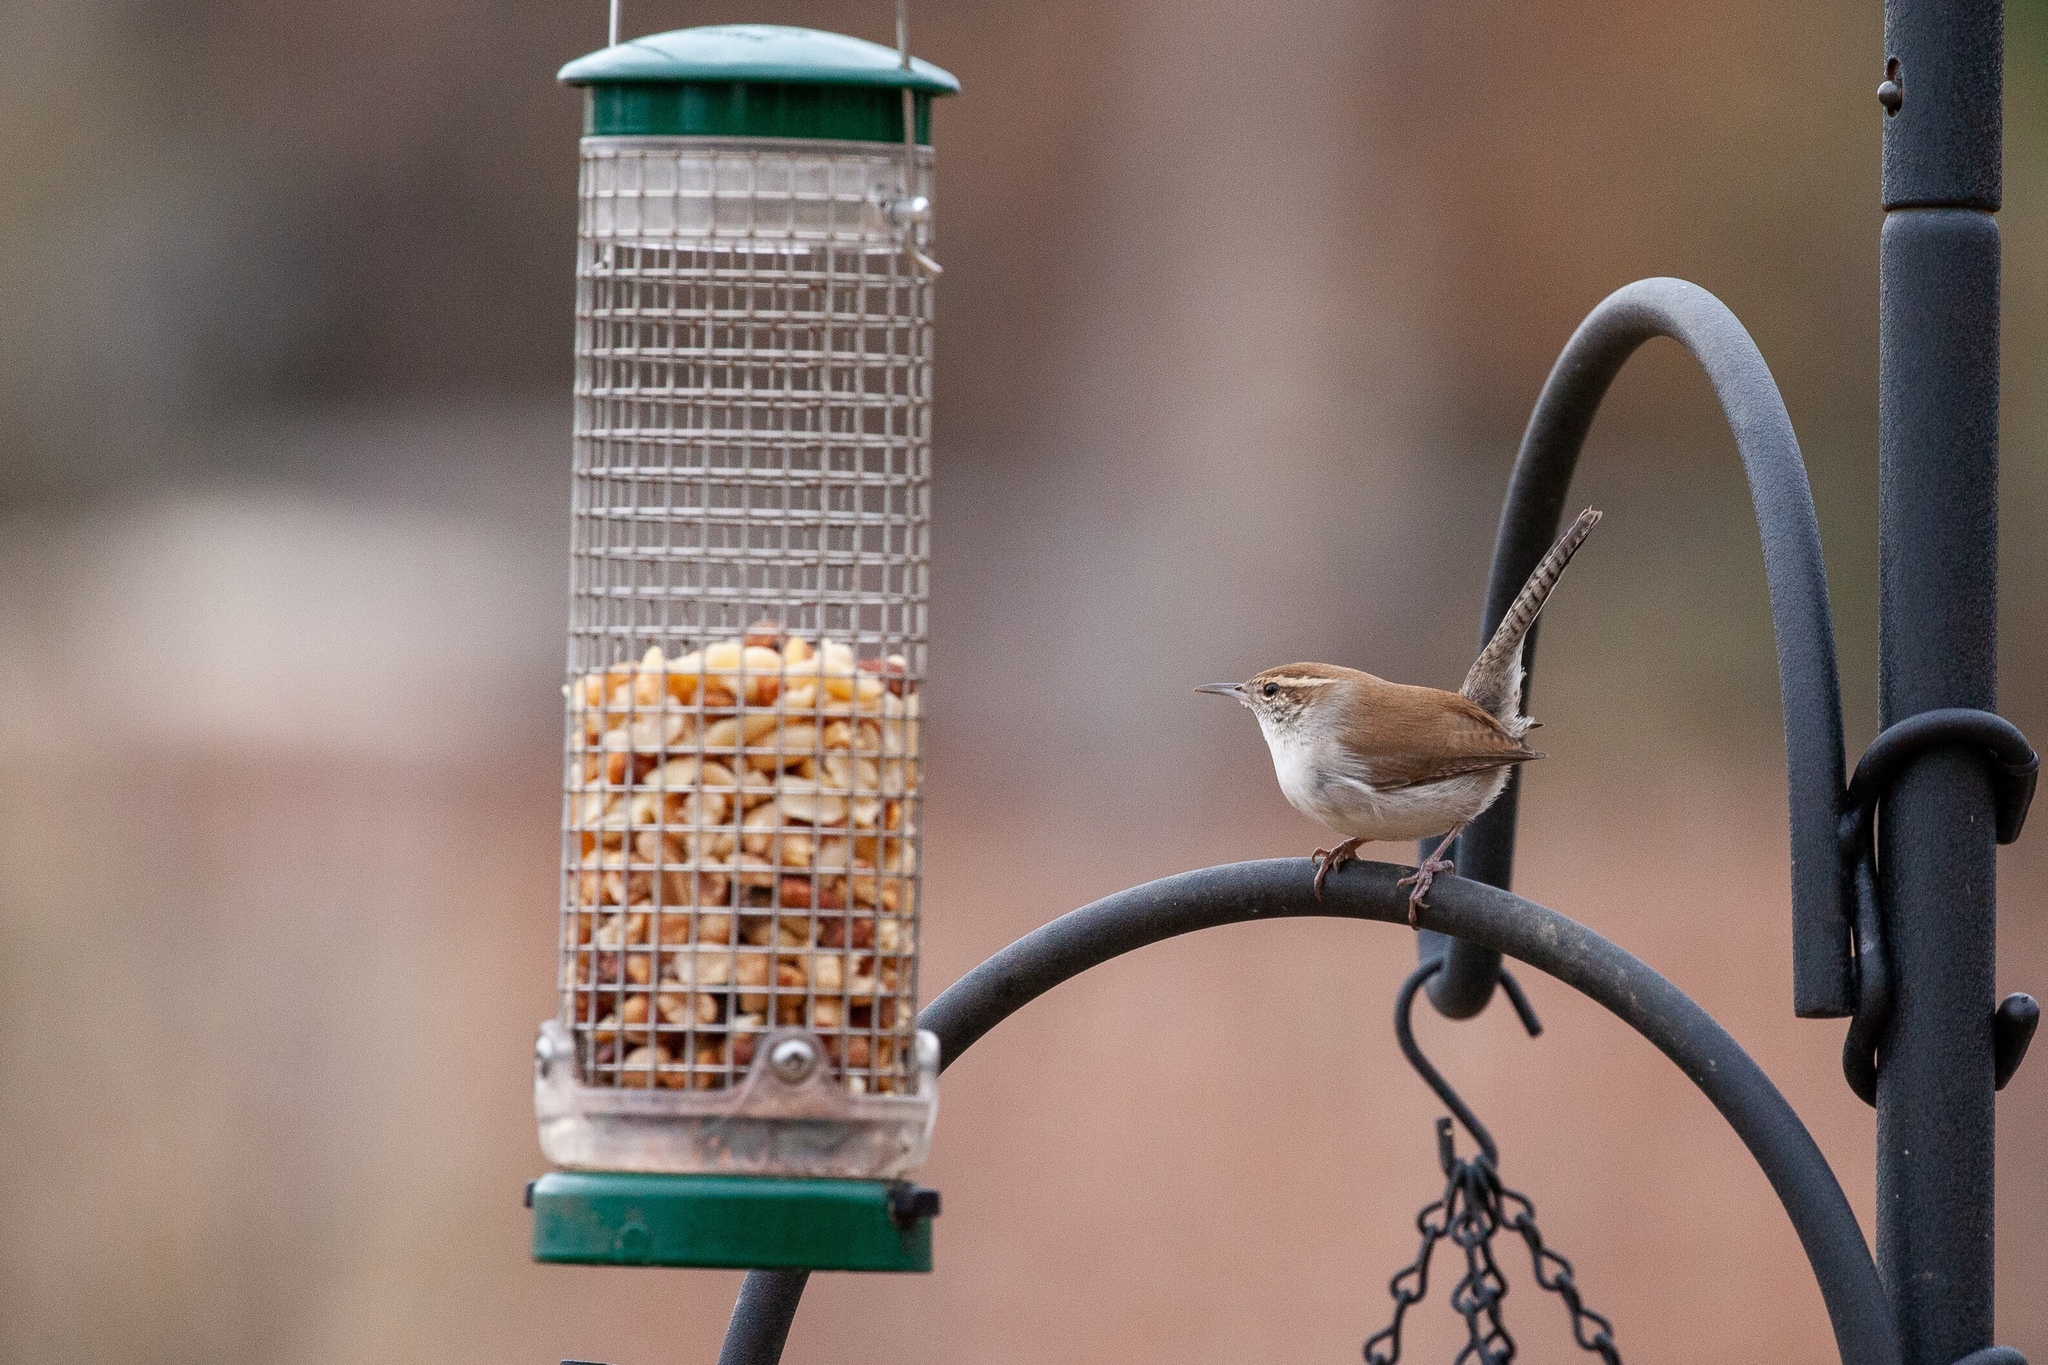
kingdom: Animalia
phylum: Chordata
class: Aves
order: Passeriformes
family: Troglodytidae
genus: Thryomanes
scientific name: Thryomanes bewickii
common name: Bewick's wren
